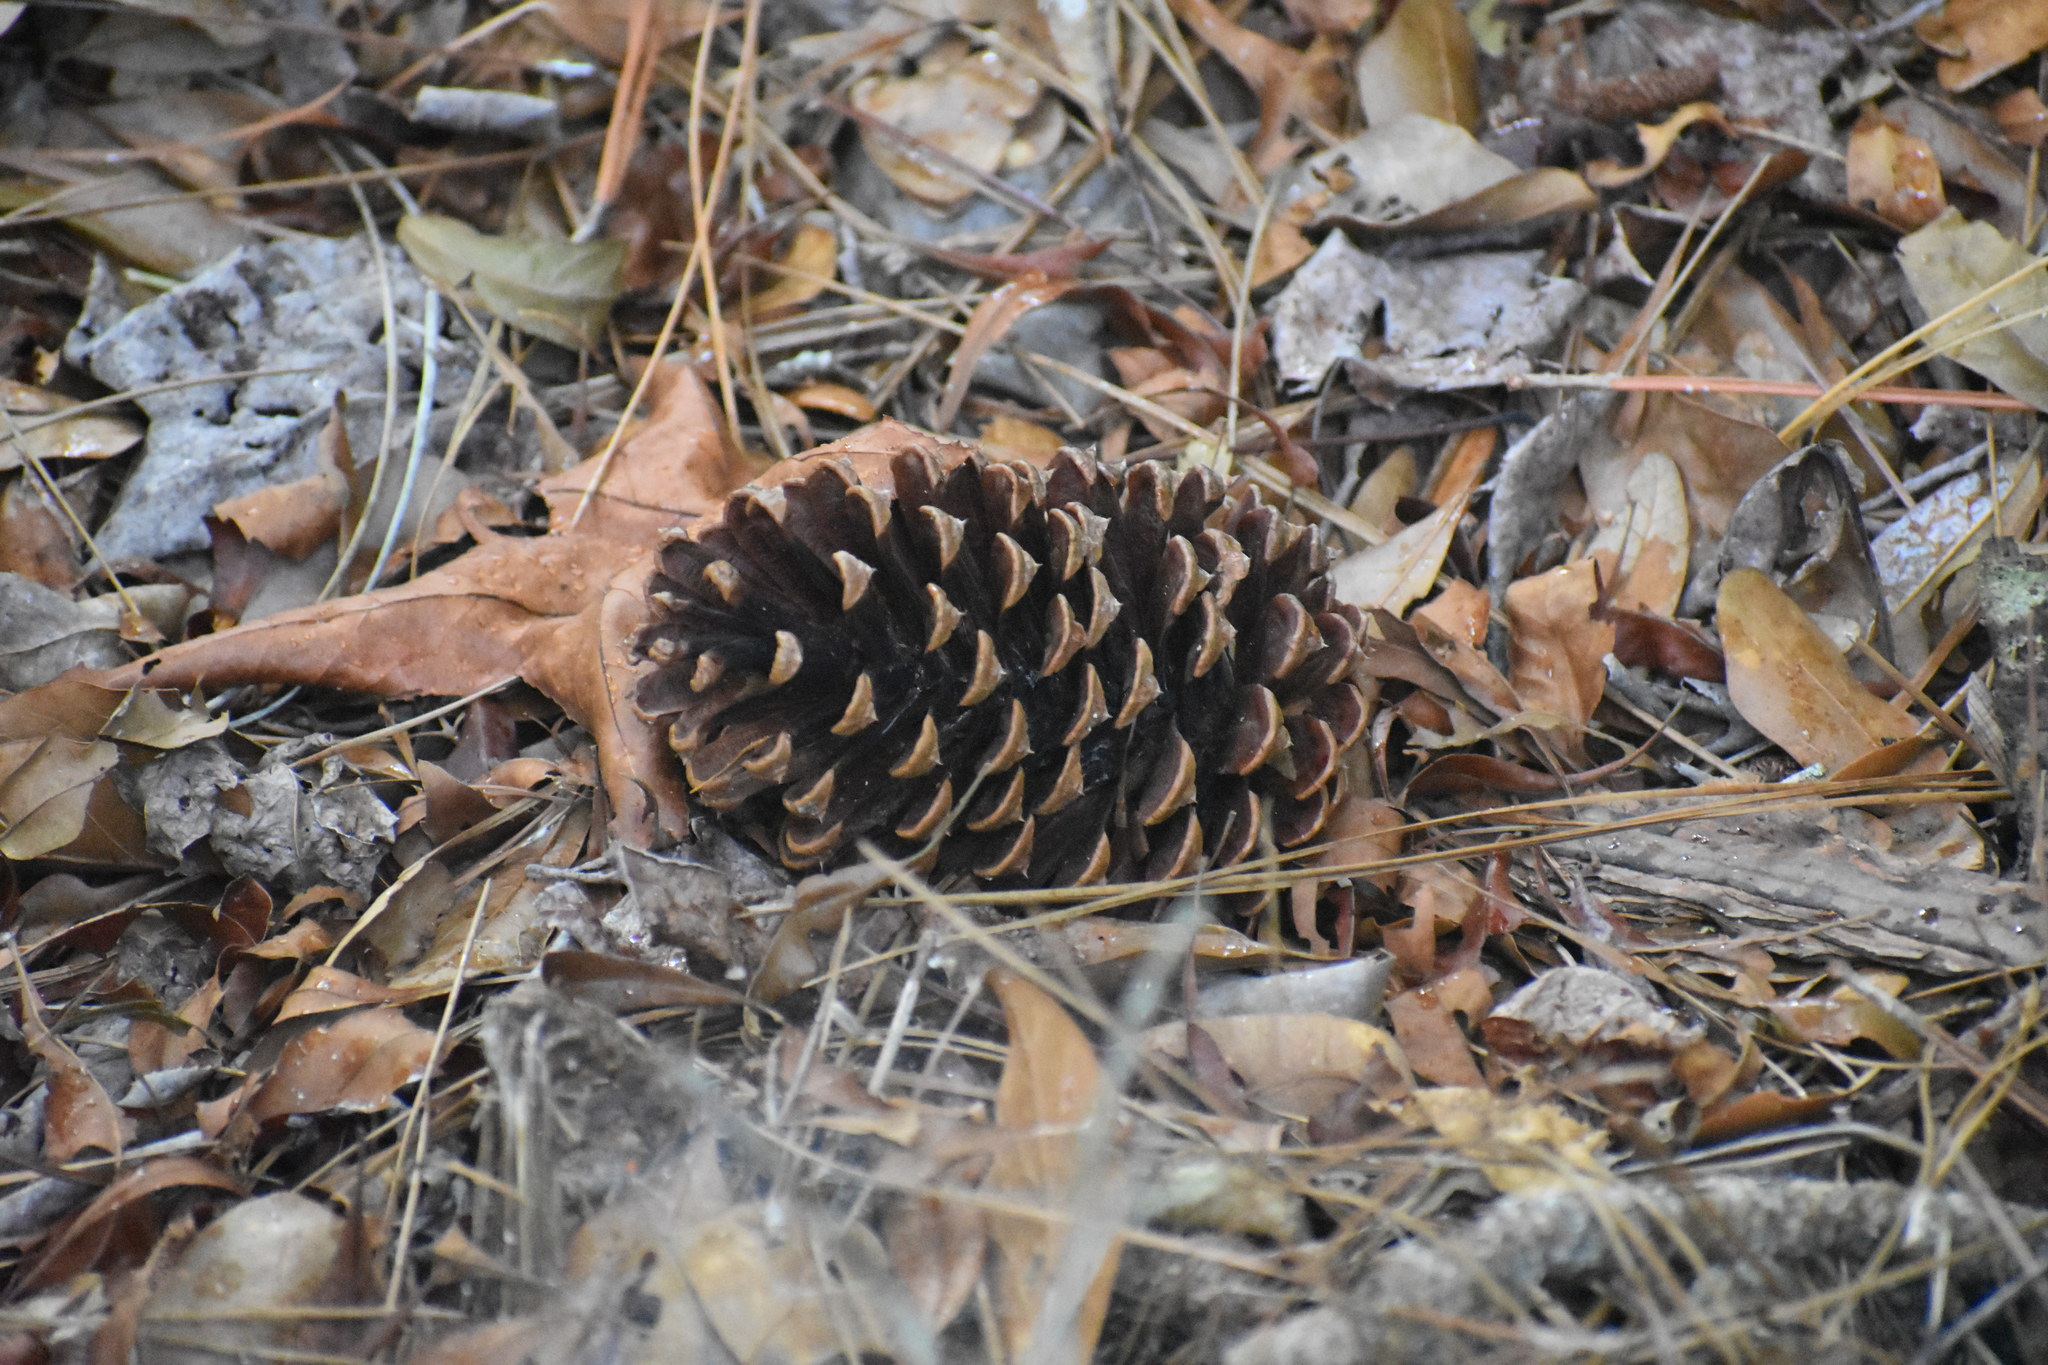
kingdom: Plantae
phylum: Tracheophyta
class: Pinopsida
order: Pinales
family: Pinaceae
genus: Pinus
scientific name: Pinus taeda
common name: Loblolly pine
